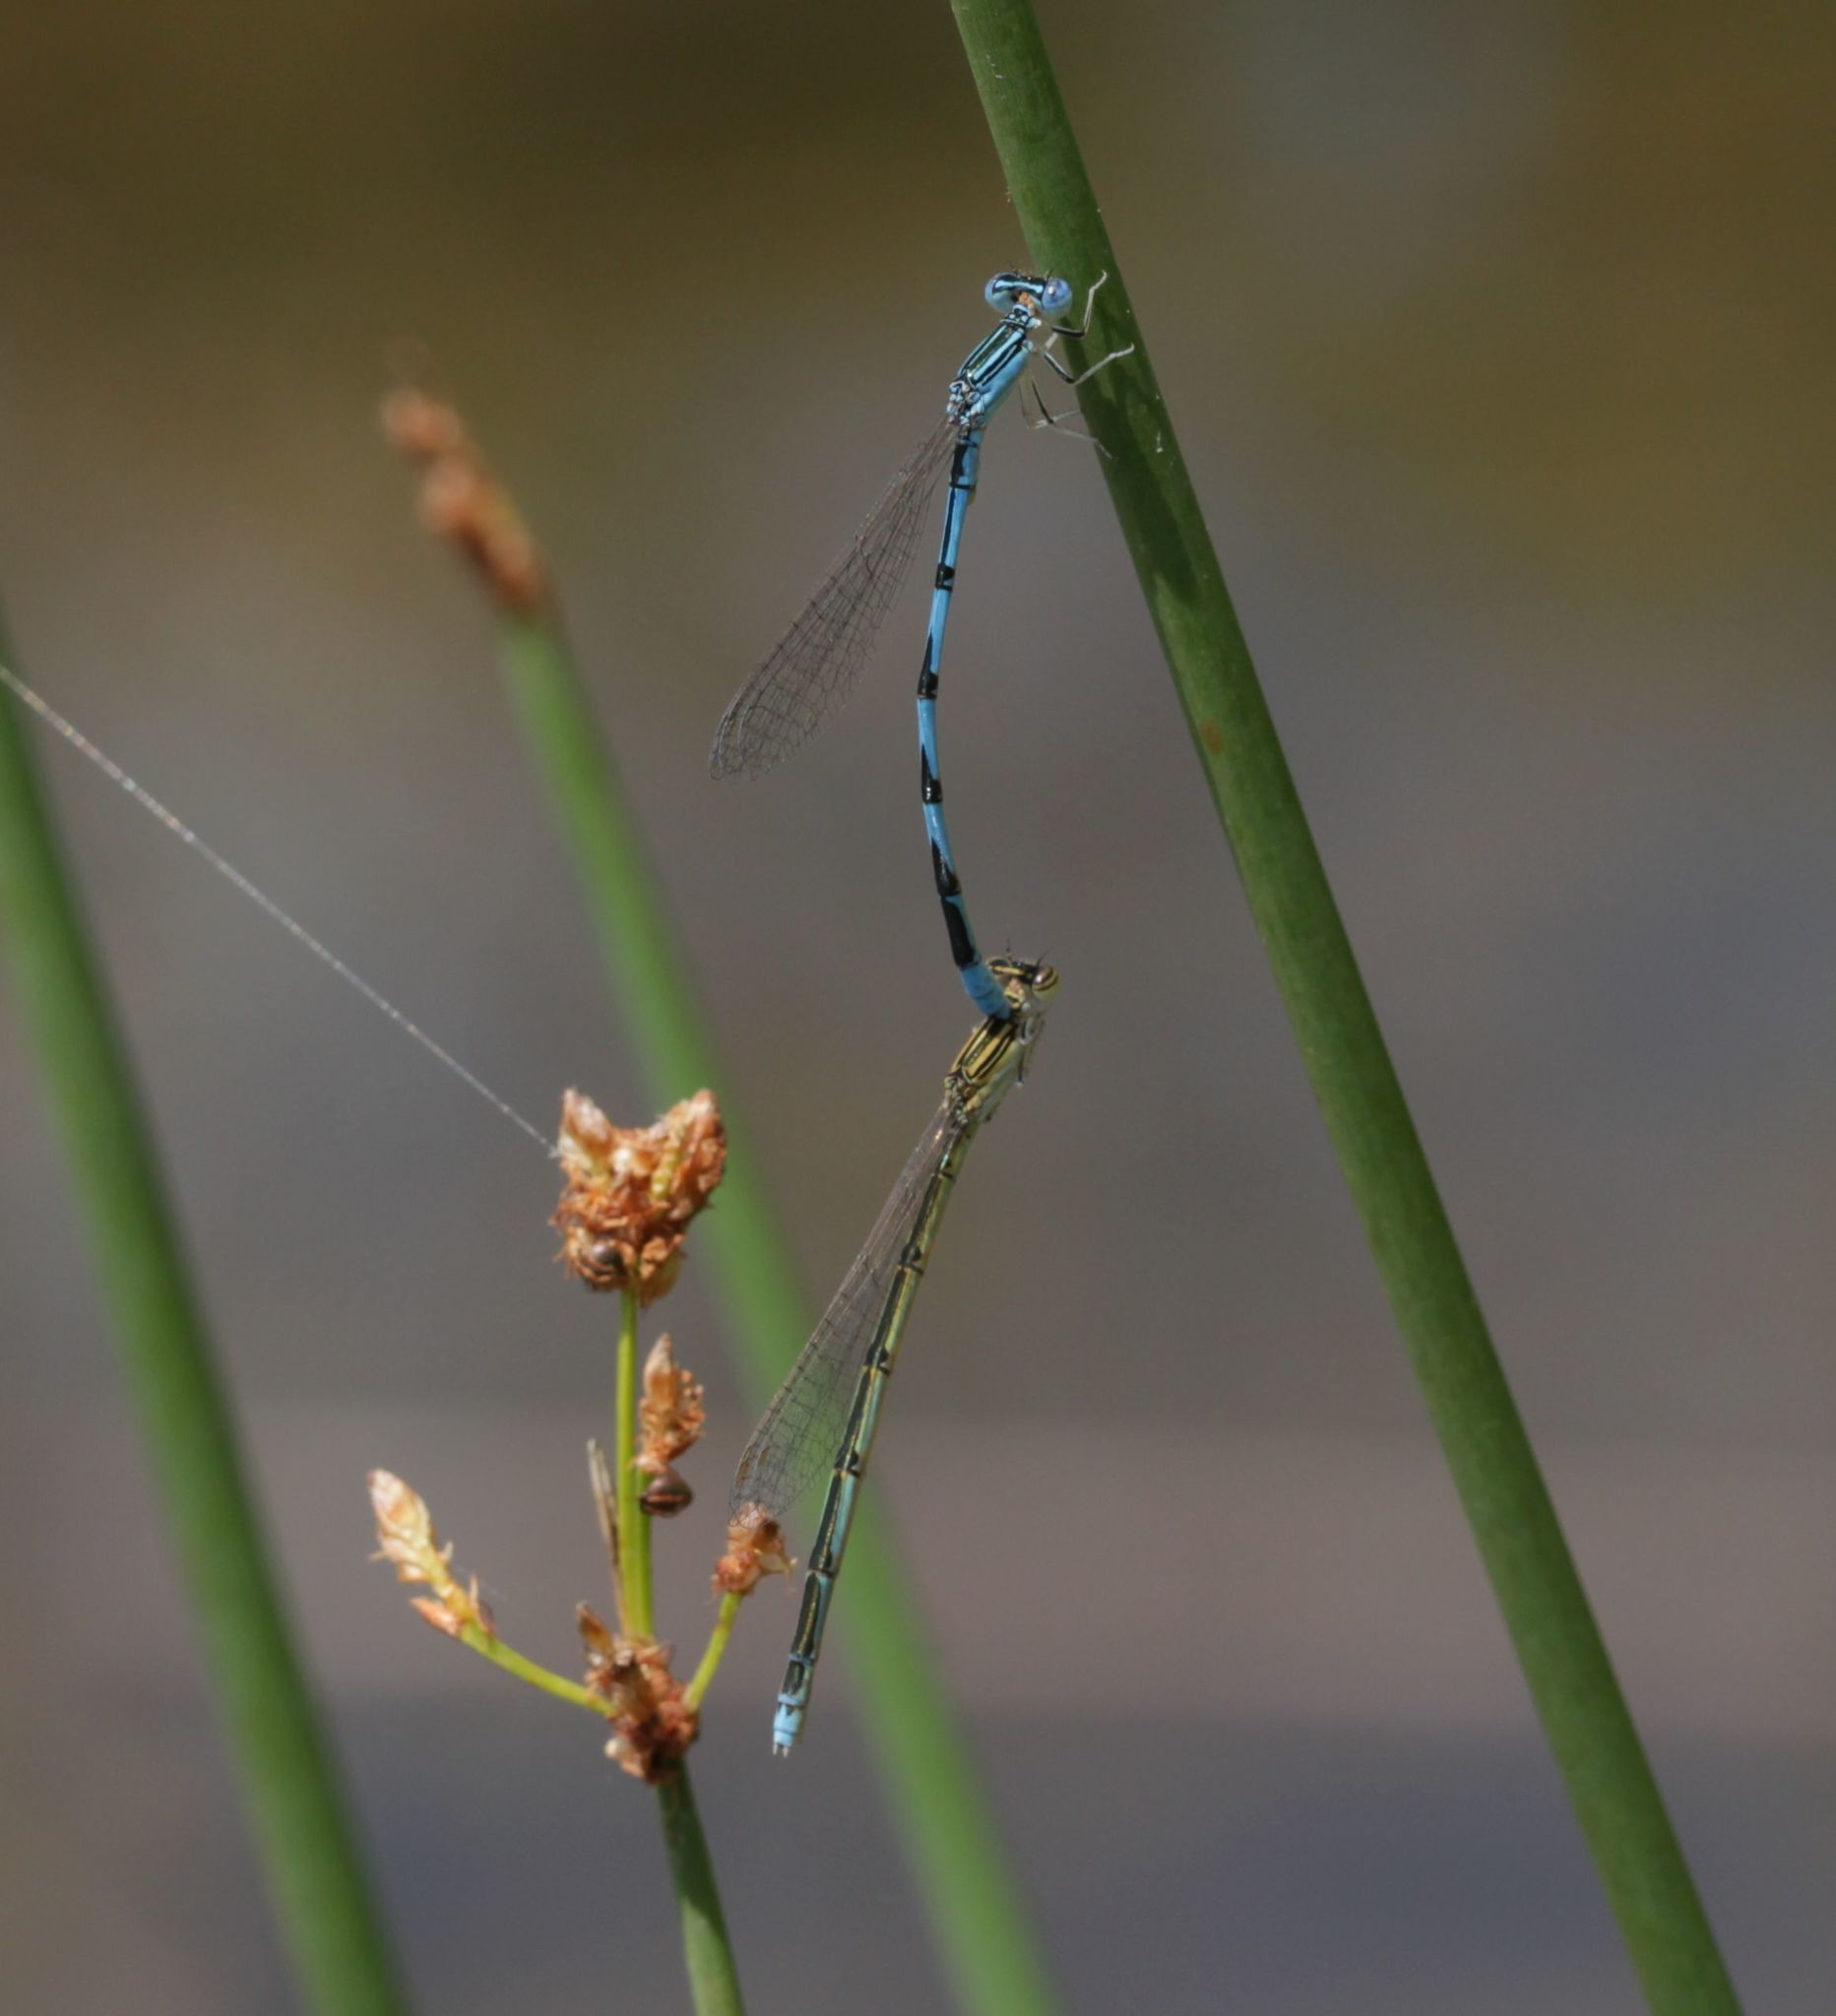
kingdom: Animalia
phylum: Arthropoda
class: Insecta
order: Odonata
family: Coenagrionidae
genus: Enallagma
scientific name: Enallagma basidens
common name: Double-striped bluet
